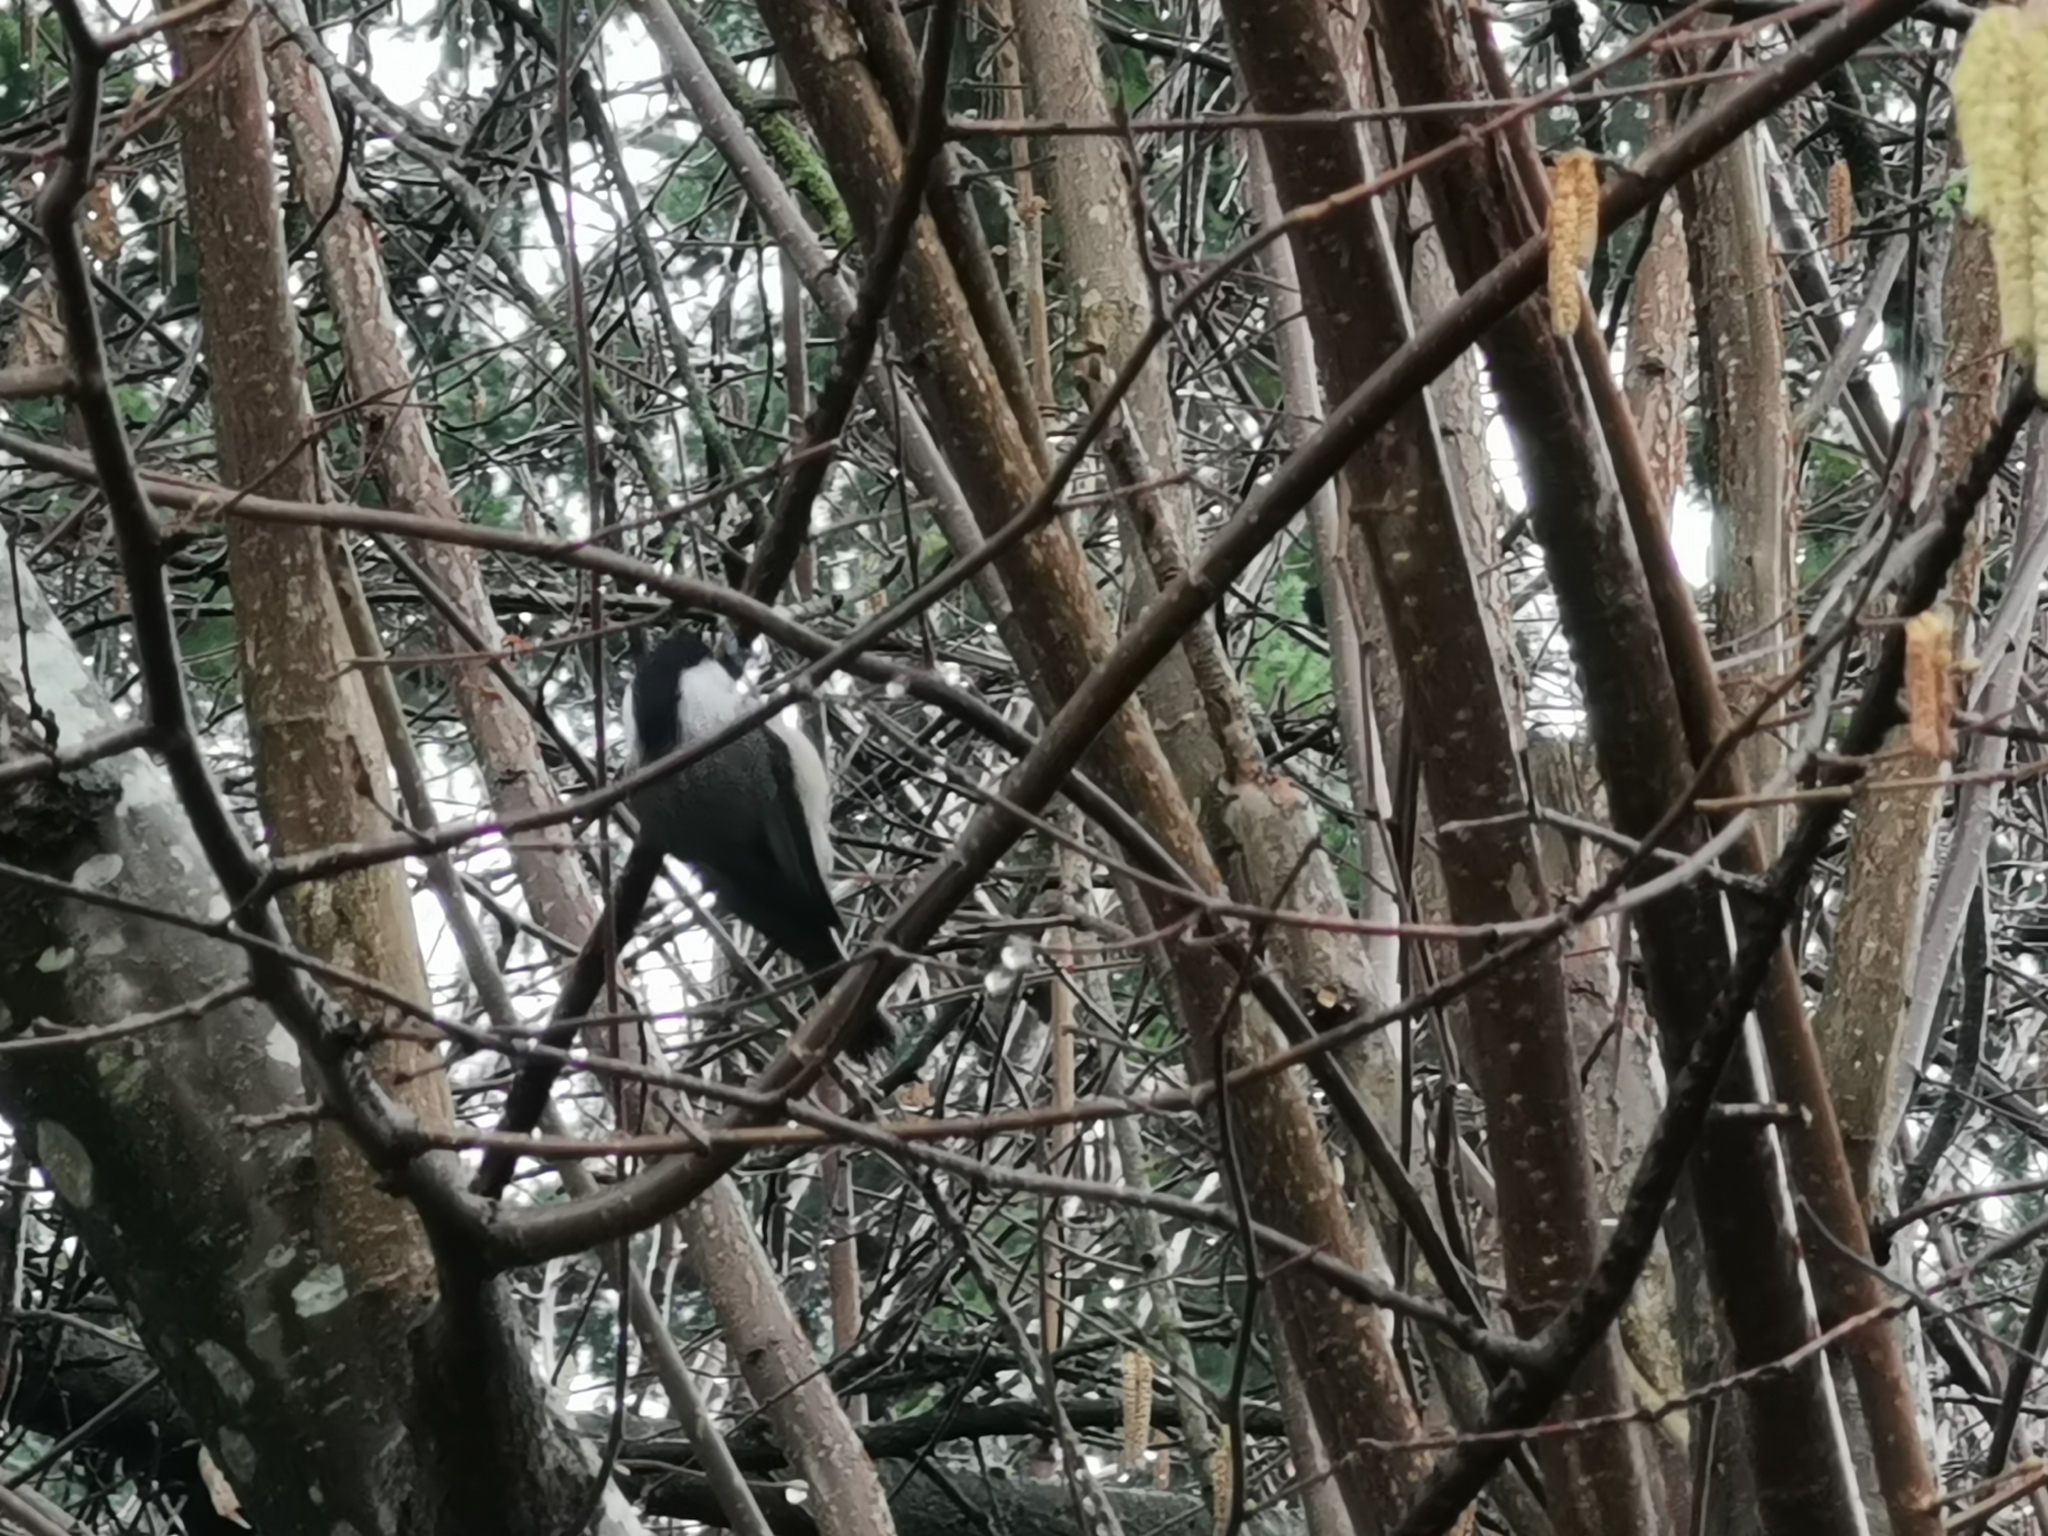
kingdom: Animalia
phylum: Chordata
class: Aves
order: Passeriformes
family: Paridae
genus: Poecile
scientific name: Poecile atricapillus
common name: Black-capped chickadee
